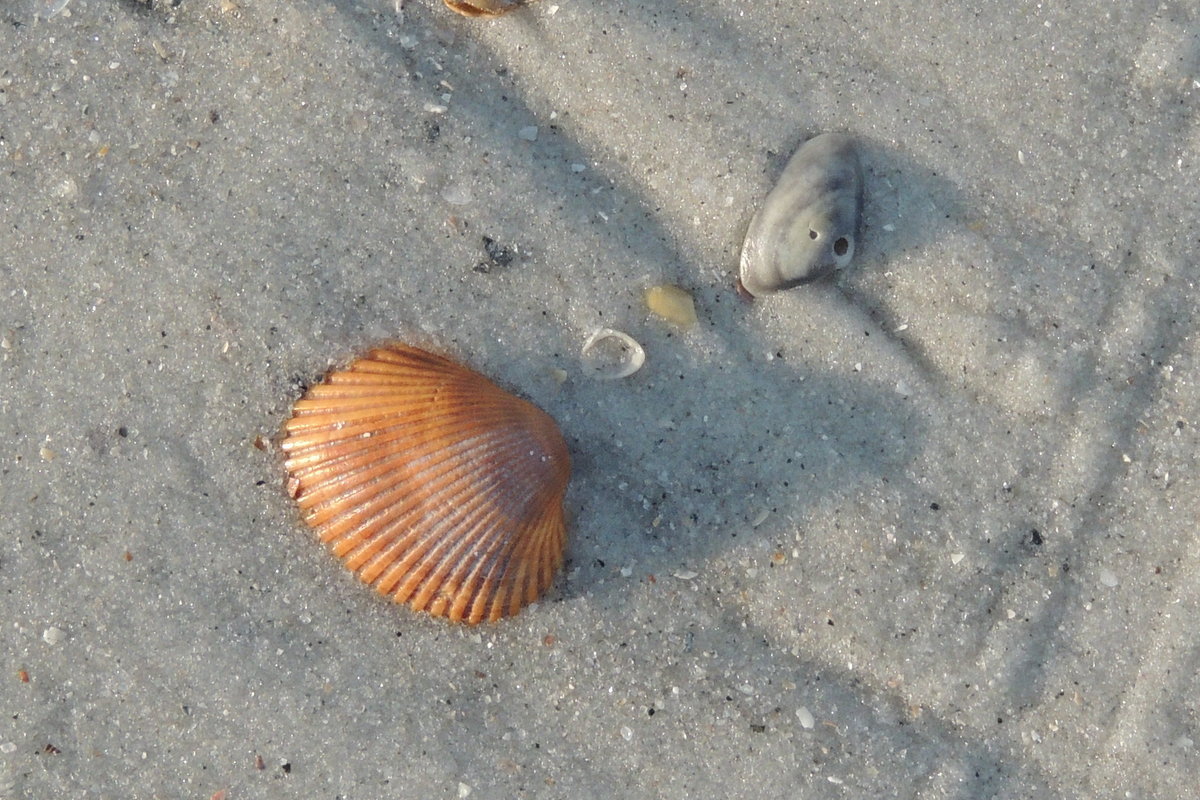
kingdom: Animalia
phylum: Mollusca
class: Bivalvia
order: Arcida
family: Arcidae
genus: Lunarca
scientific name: Lunarca ovalis
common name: Blood ark
